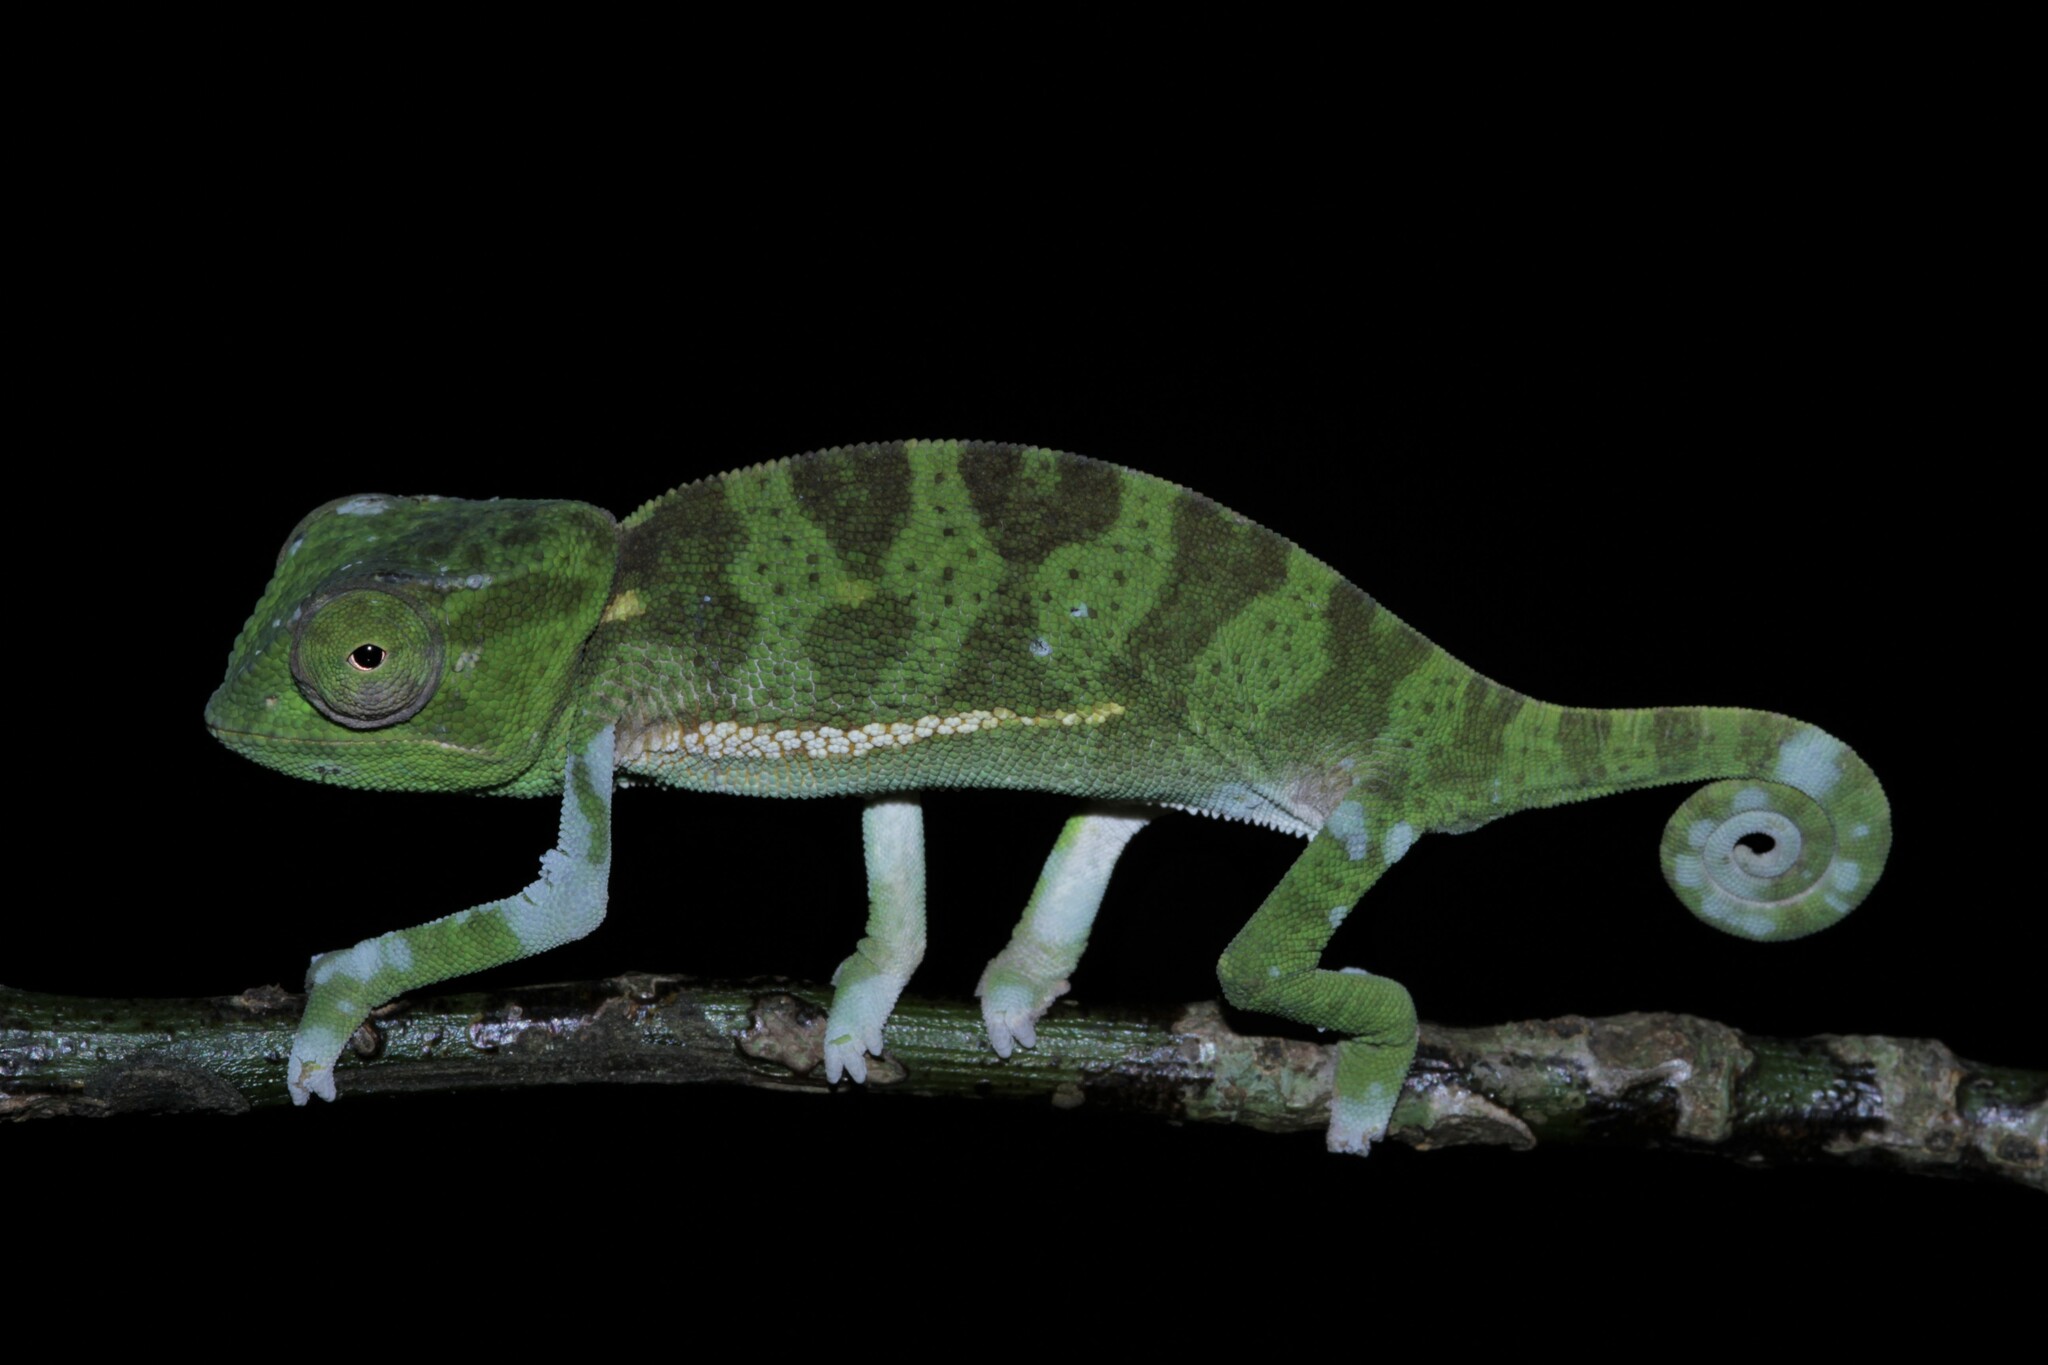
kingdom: Animalia
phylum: Chordata
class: Squamata
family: Chamaeleonidae
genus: Chamaeleo
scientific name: Chamaeleo dilepis
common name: Flapneck chameleon
